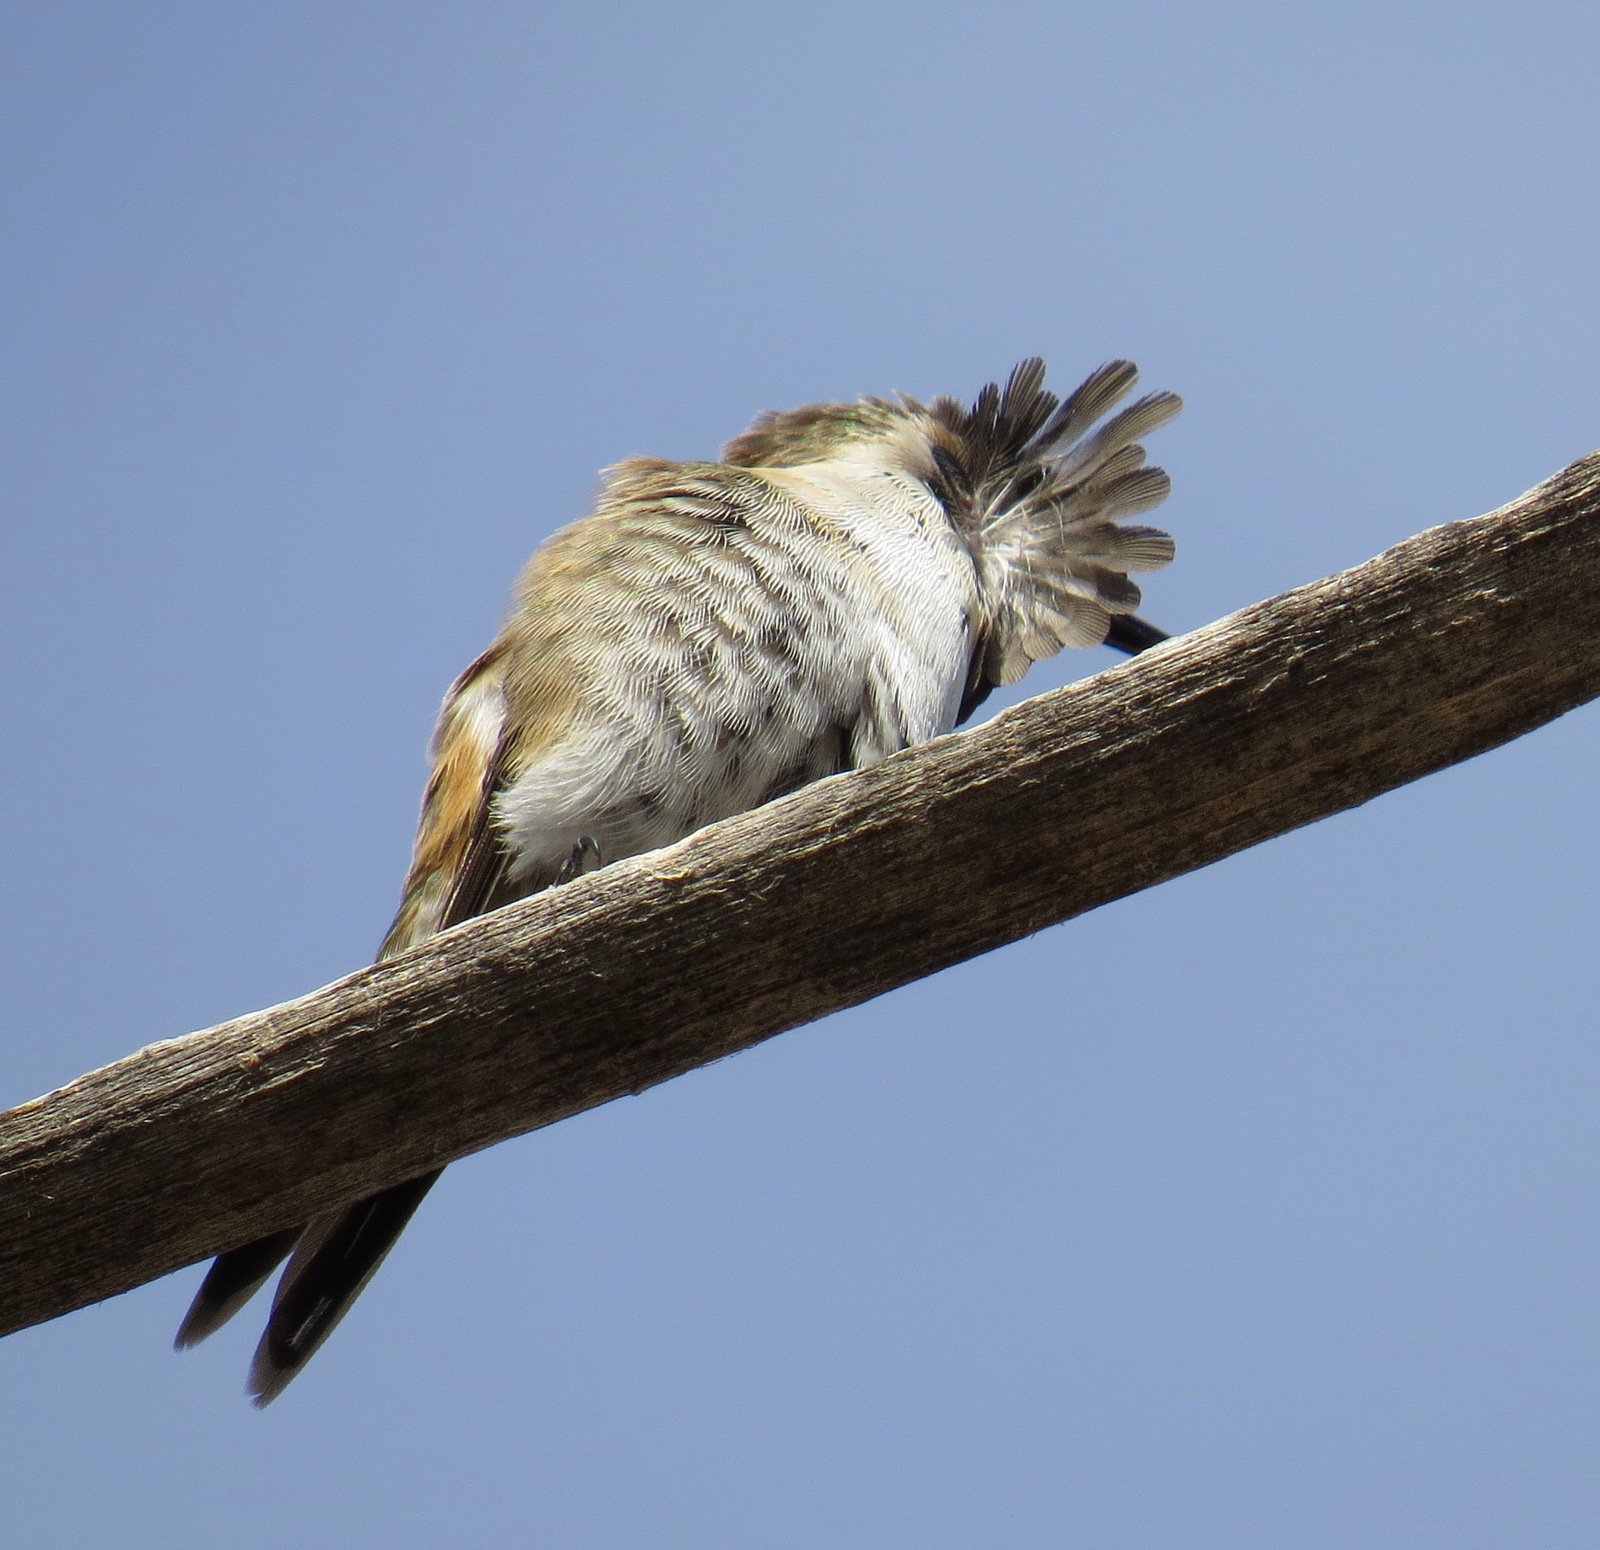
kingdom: Animalia
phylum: Chordata
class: Aves
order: Apodiformes
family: Trochilidae
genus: Calothorax
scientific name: Calothorax lucifer
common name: Lucifer sheartail
